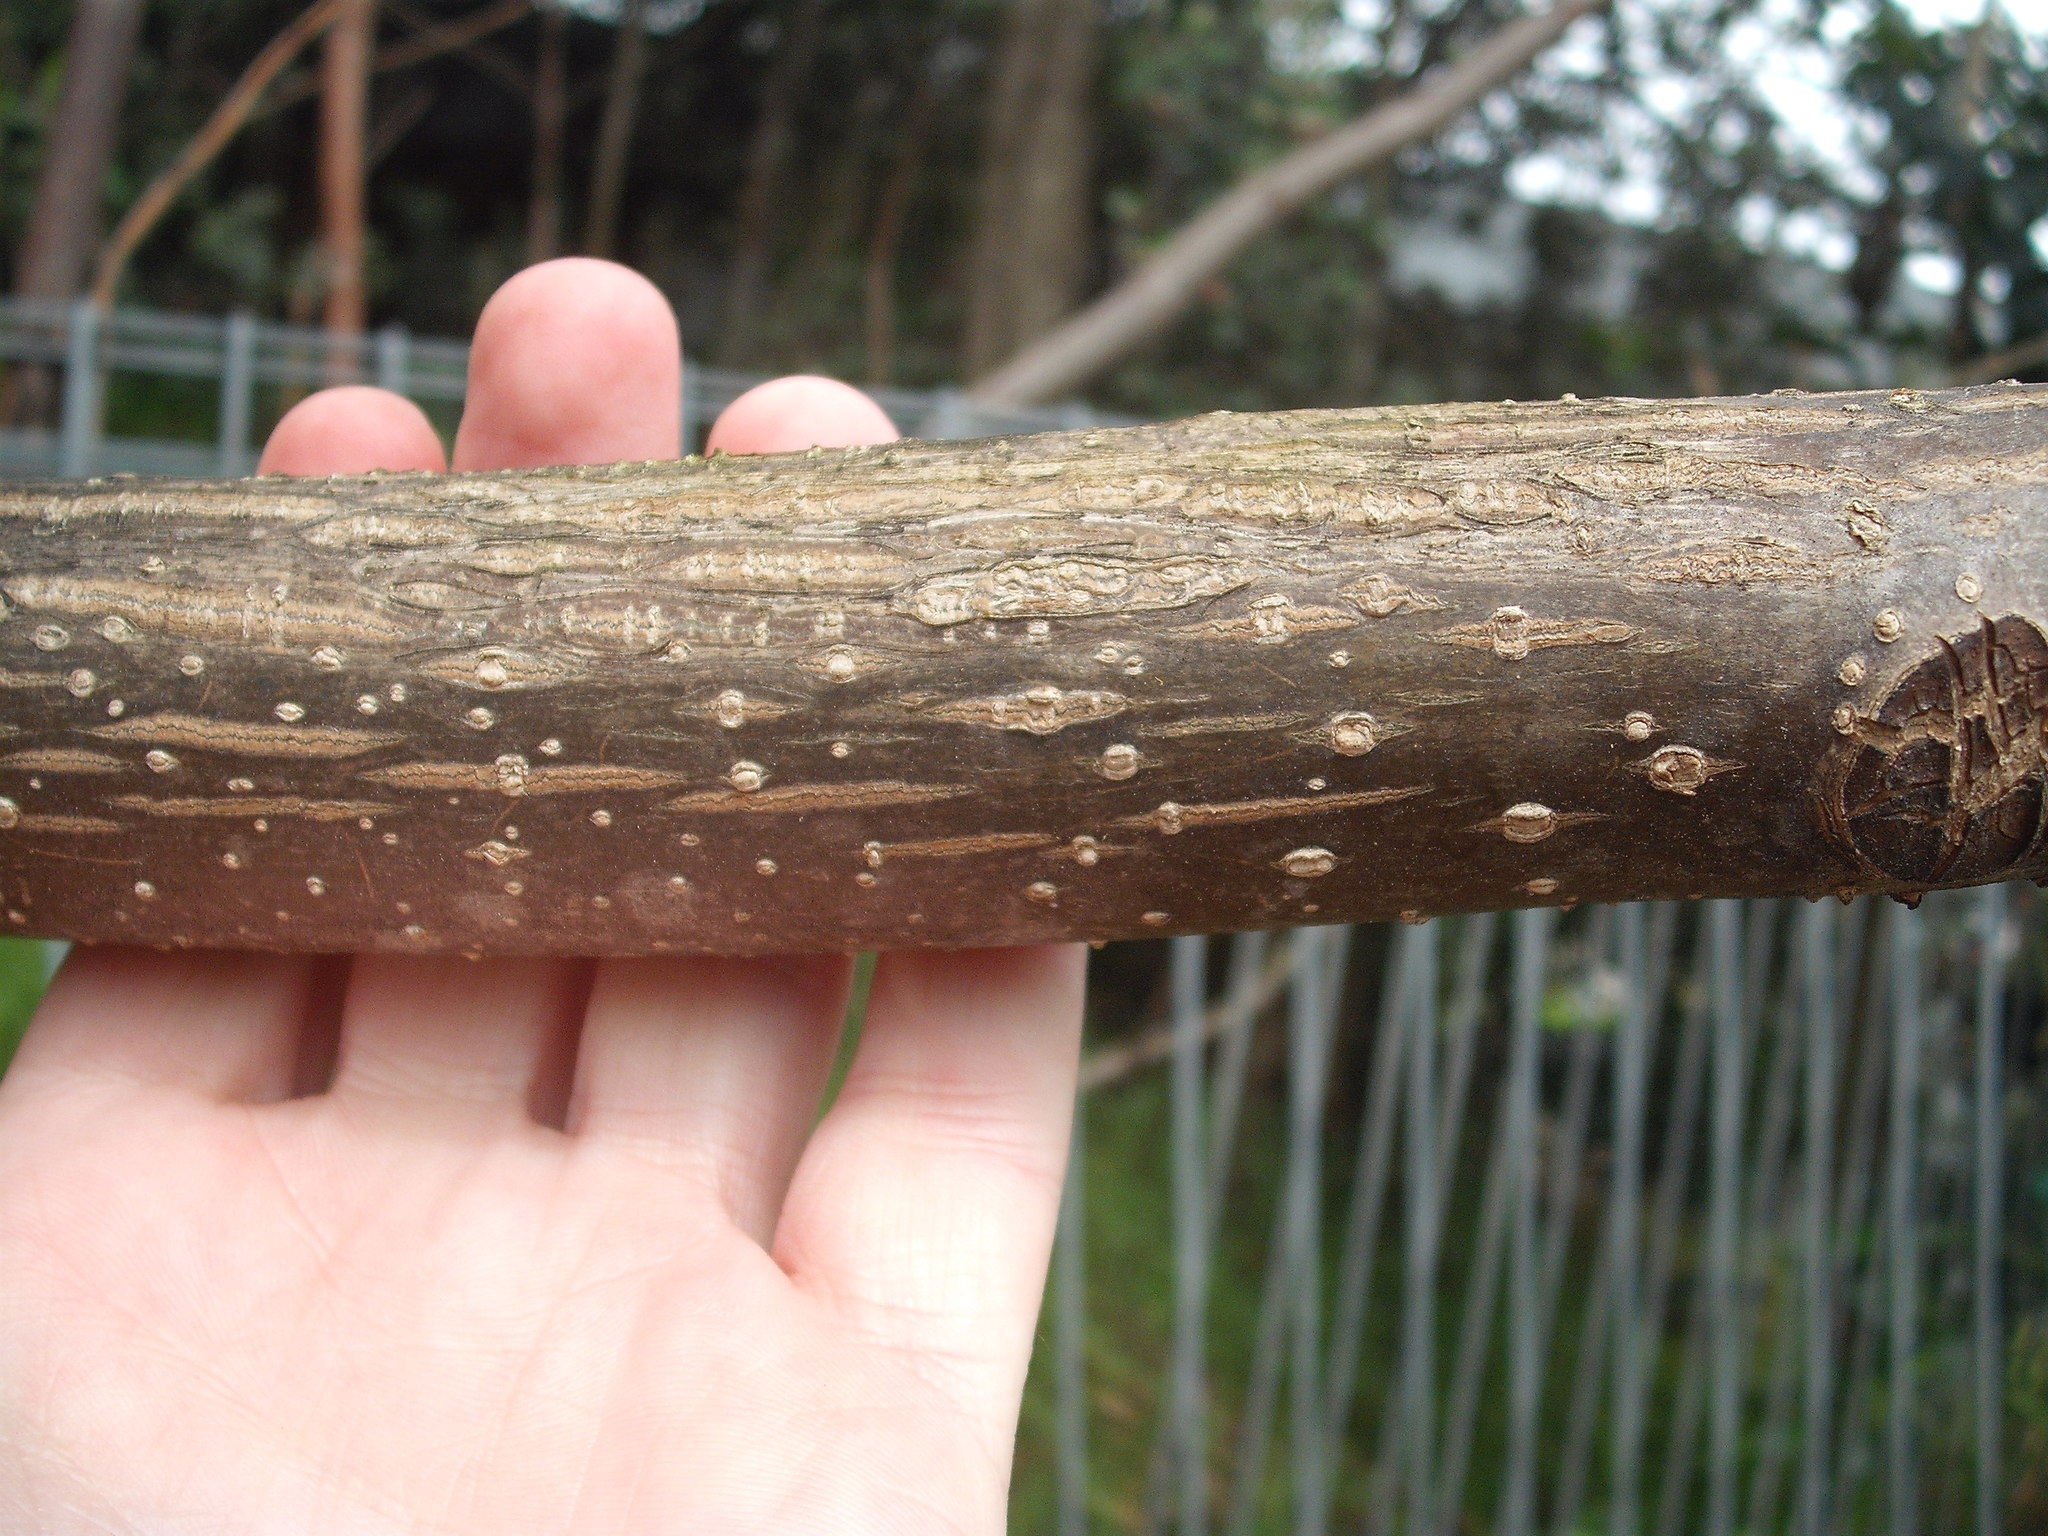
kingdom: Plantae
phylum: Tracheophyta
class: Magnoliopsida
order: Lamiales
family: Paulowniaceae
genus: Paulownia
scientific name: Paulownia tomentosa
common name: Foxglove-tree
